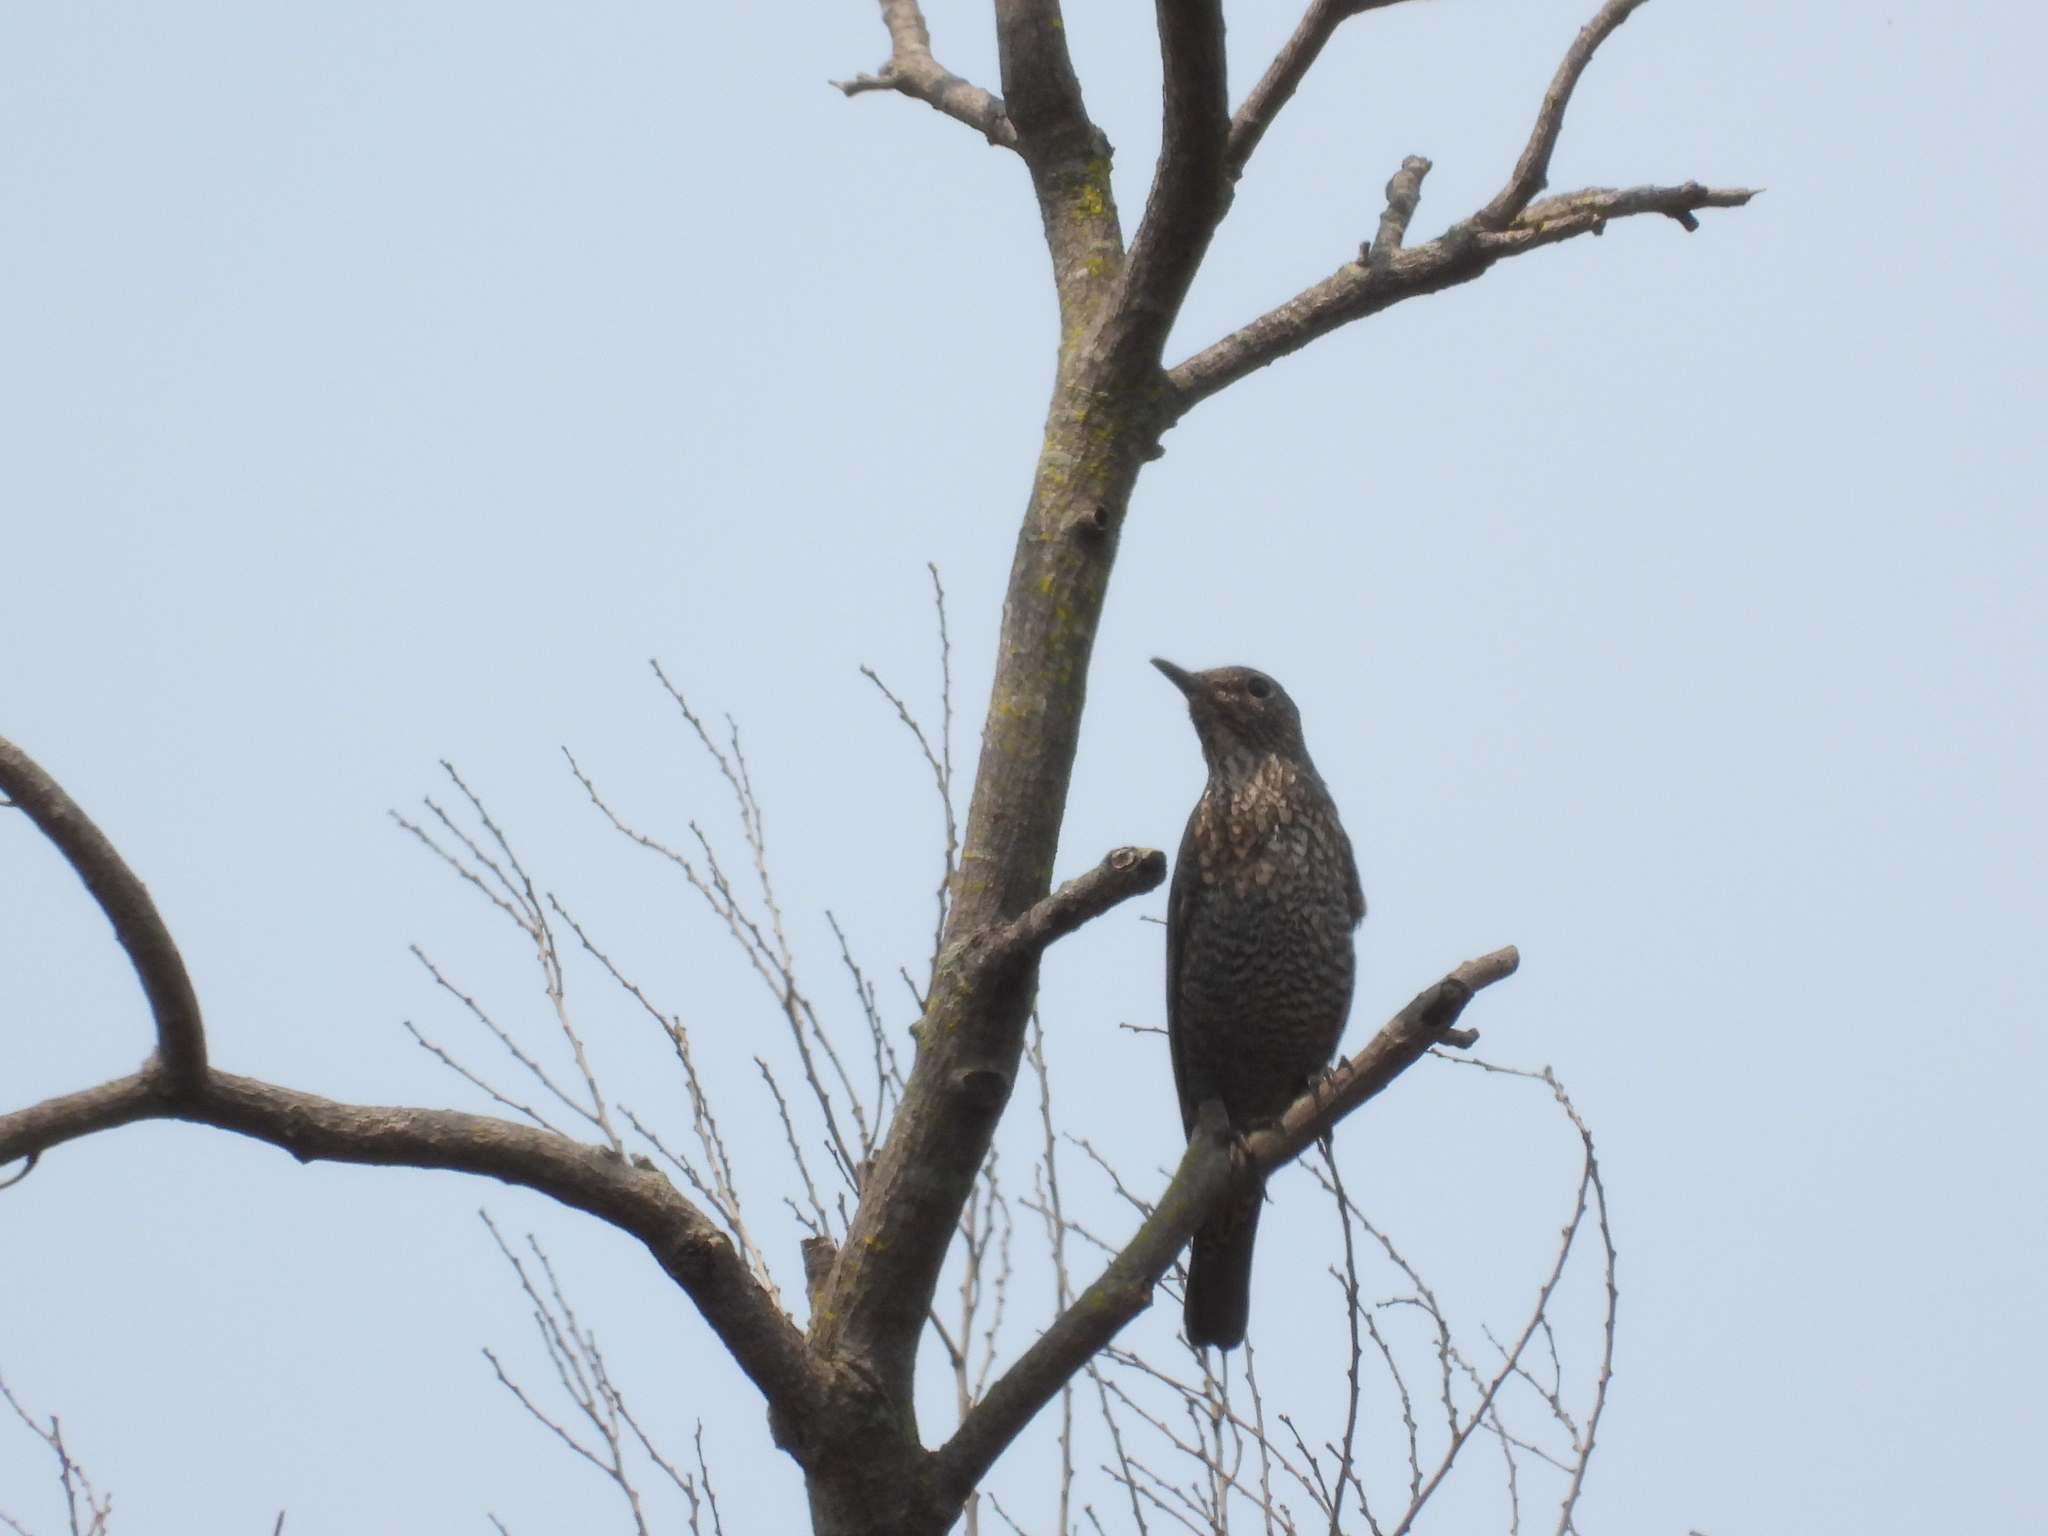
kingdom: Animalia
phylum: Chordata
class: Aves
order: Passeriformes
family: Muscicapidae
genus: Monticola
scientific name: Monticola solitarius
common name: Blue rock thrush
